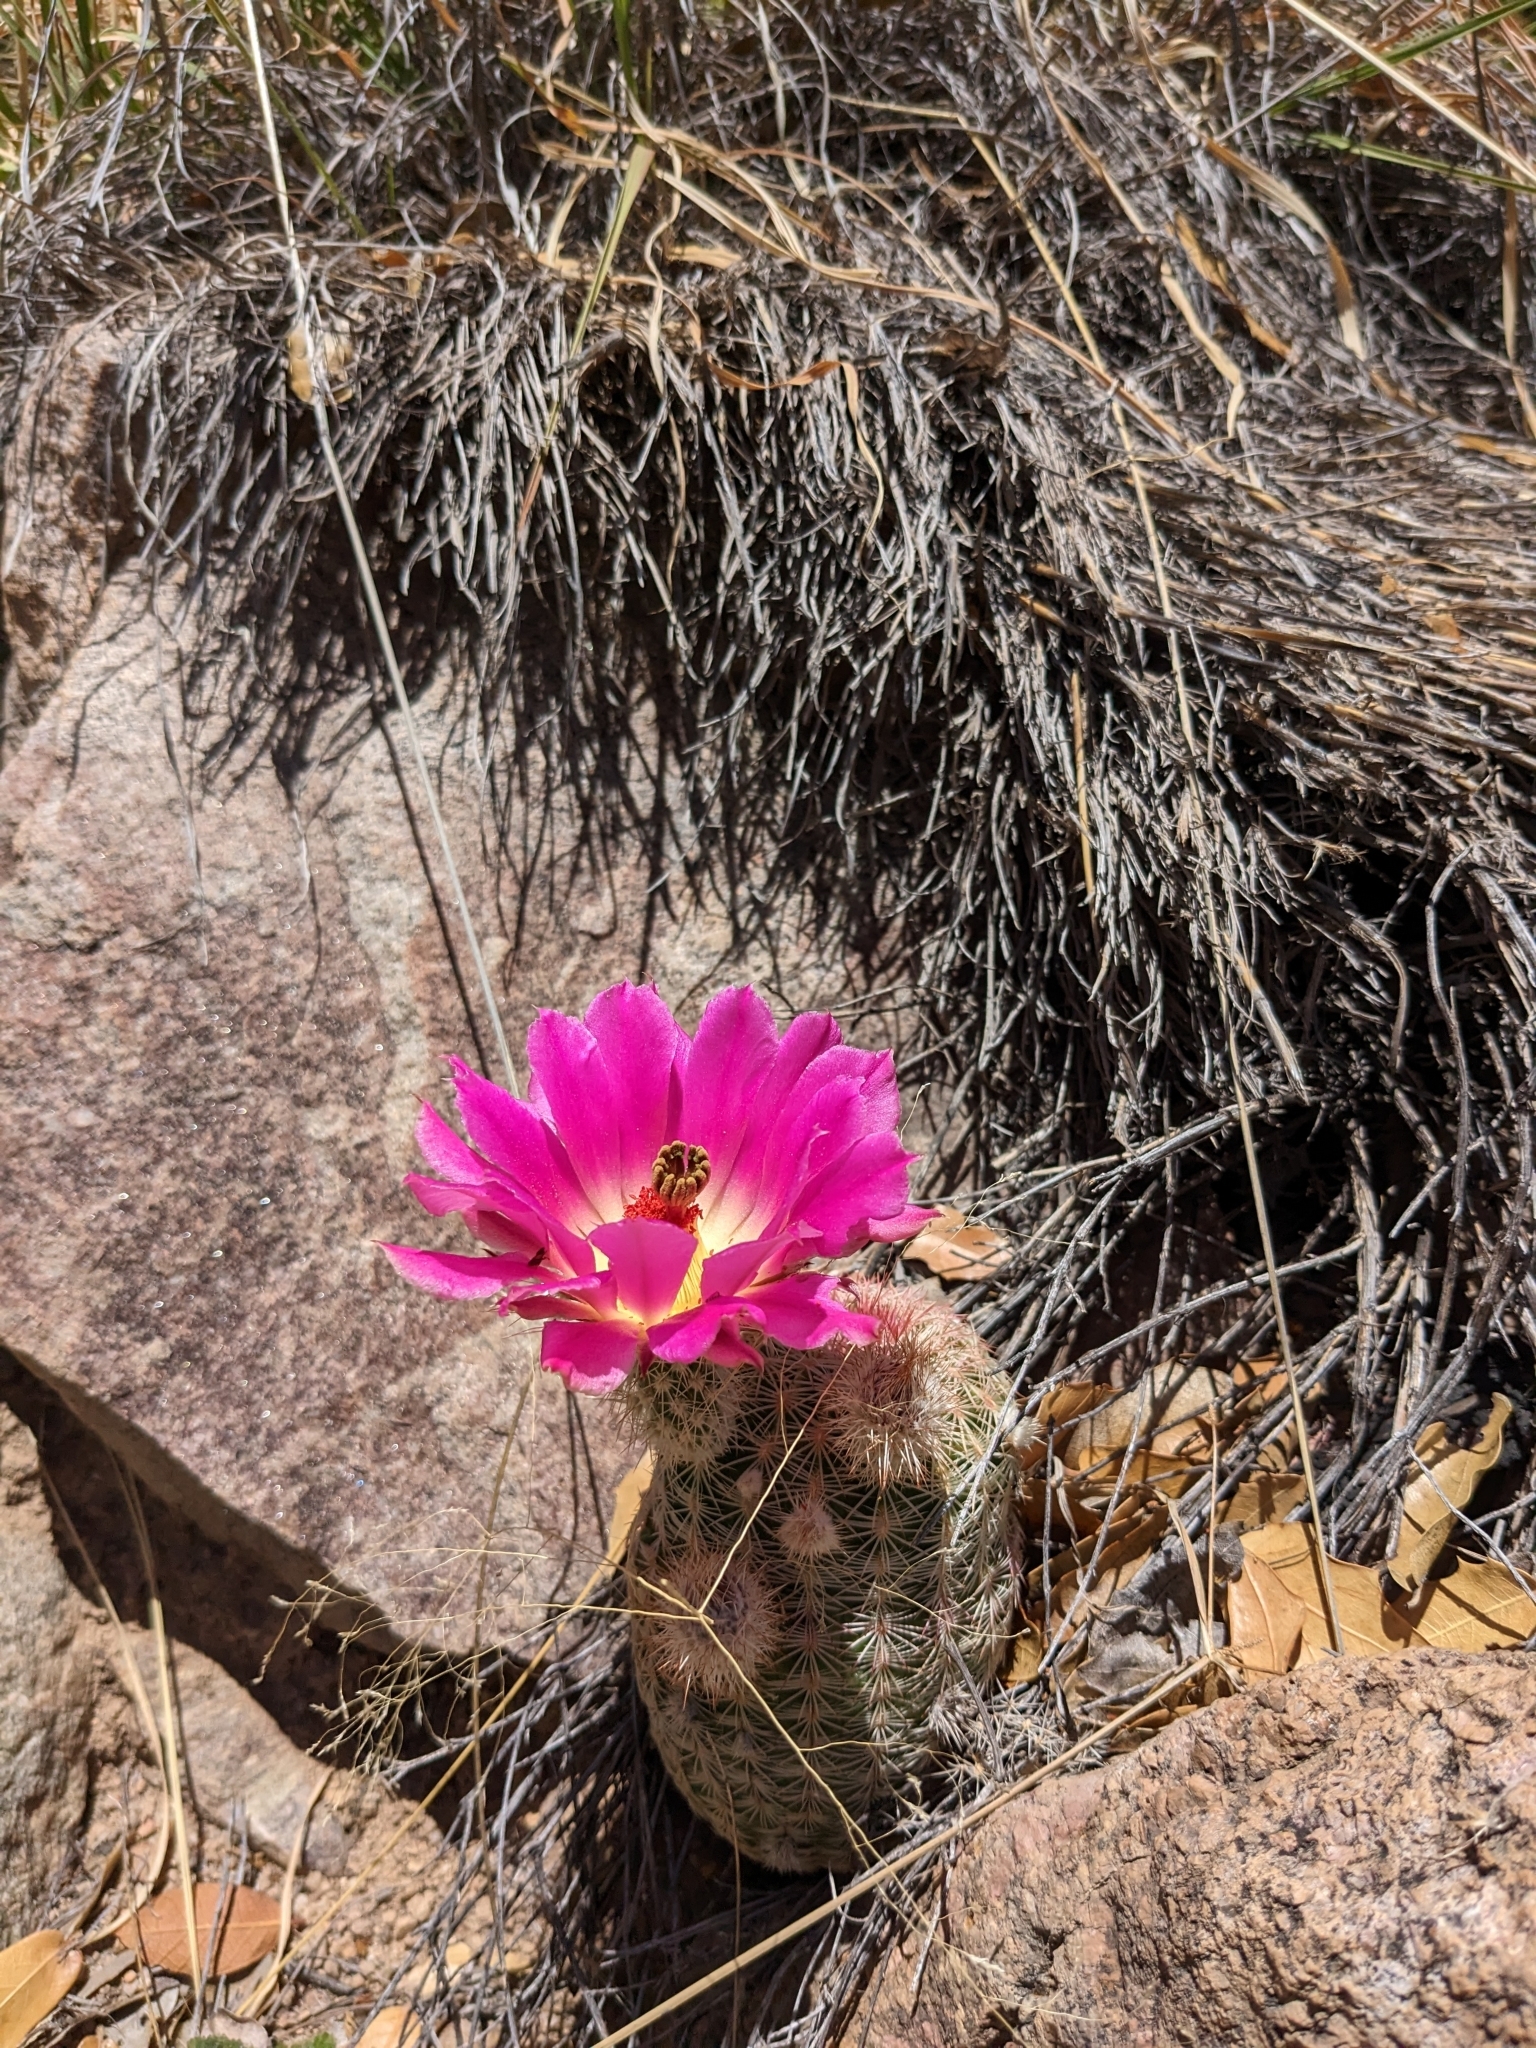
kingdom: Plantae
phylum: Tracheophyta
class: Magnoliopsida
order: Caryophyllales
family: Cactaceae
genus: Echinocereus
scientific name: Echinocereus rigidissimus
